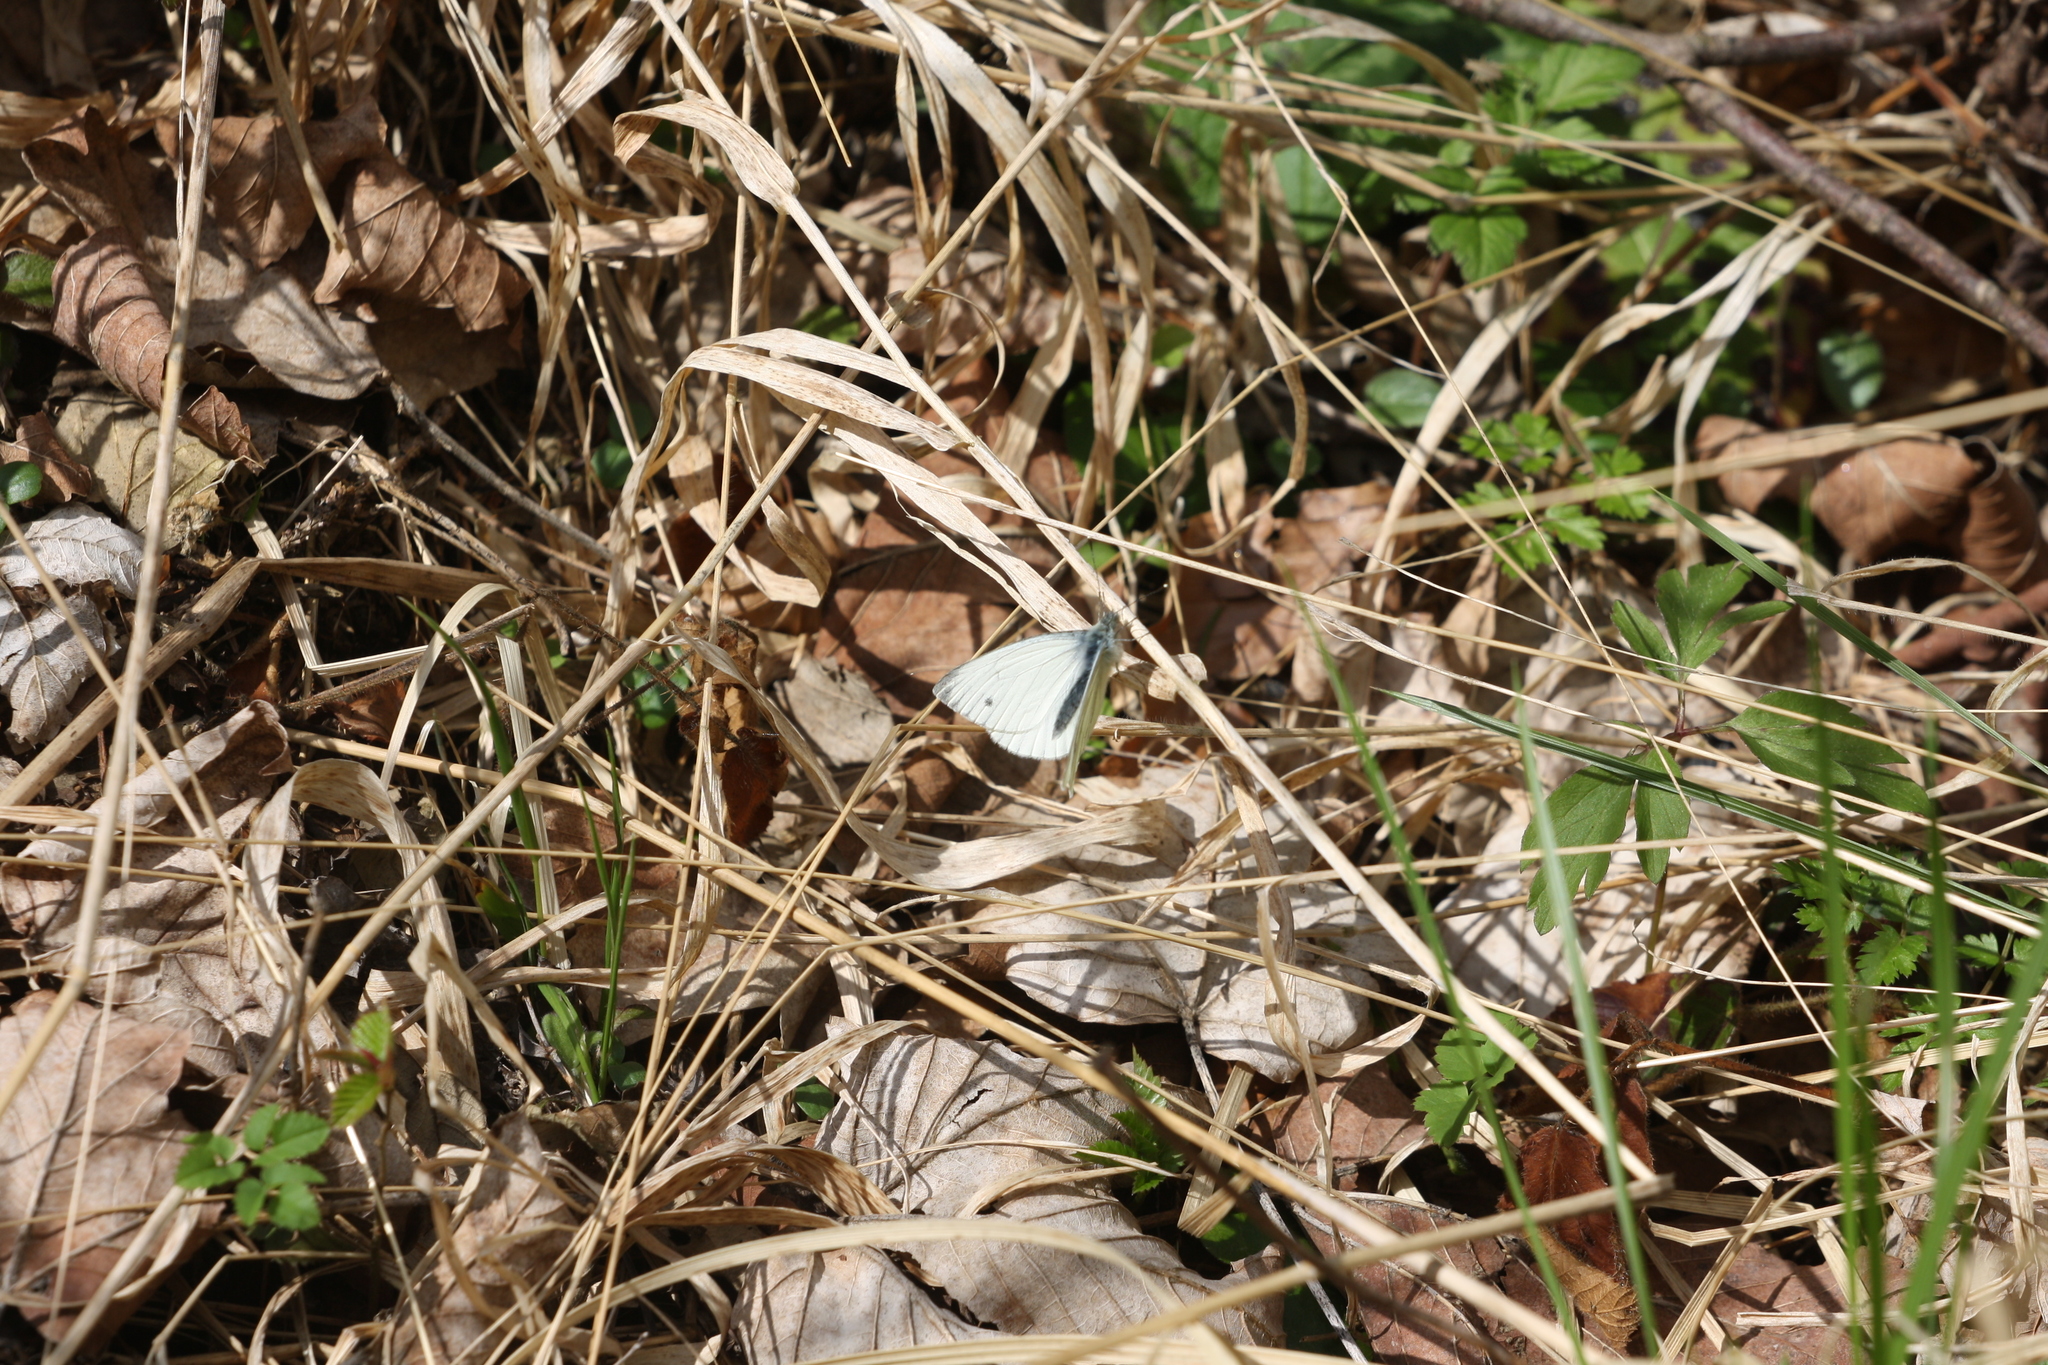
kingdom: Animalia
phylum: Arthropoda
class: Insecta
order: Lepidoptera
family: Pieridae
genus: Pieris
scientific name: Pieris napi
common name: Green-veined white
